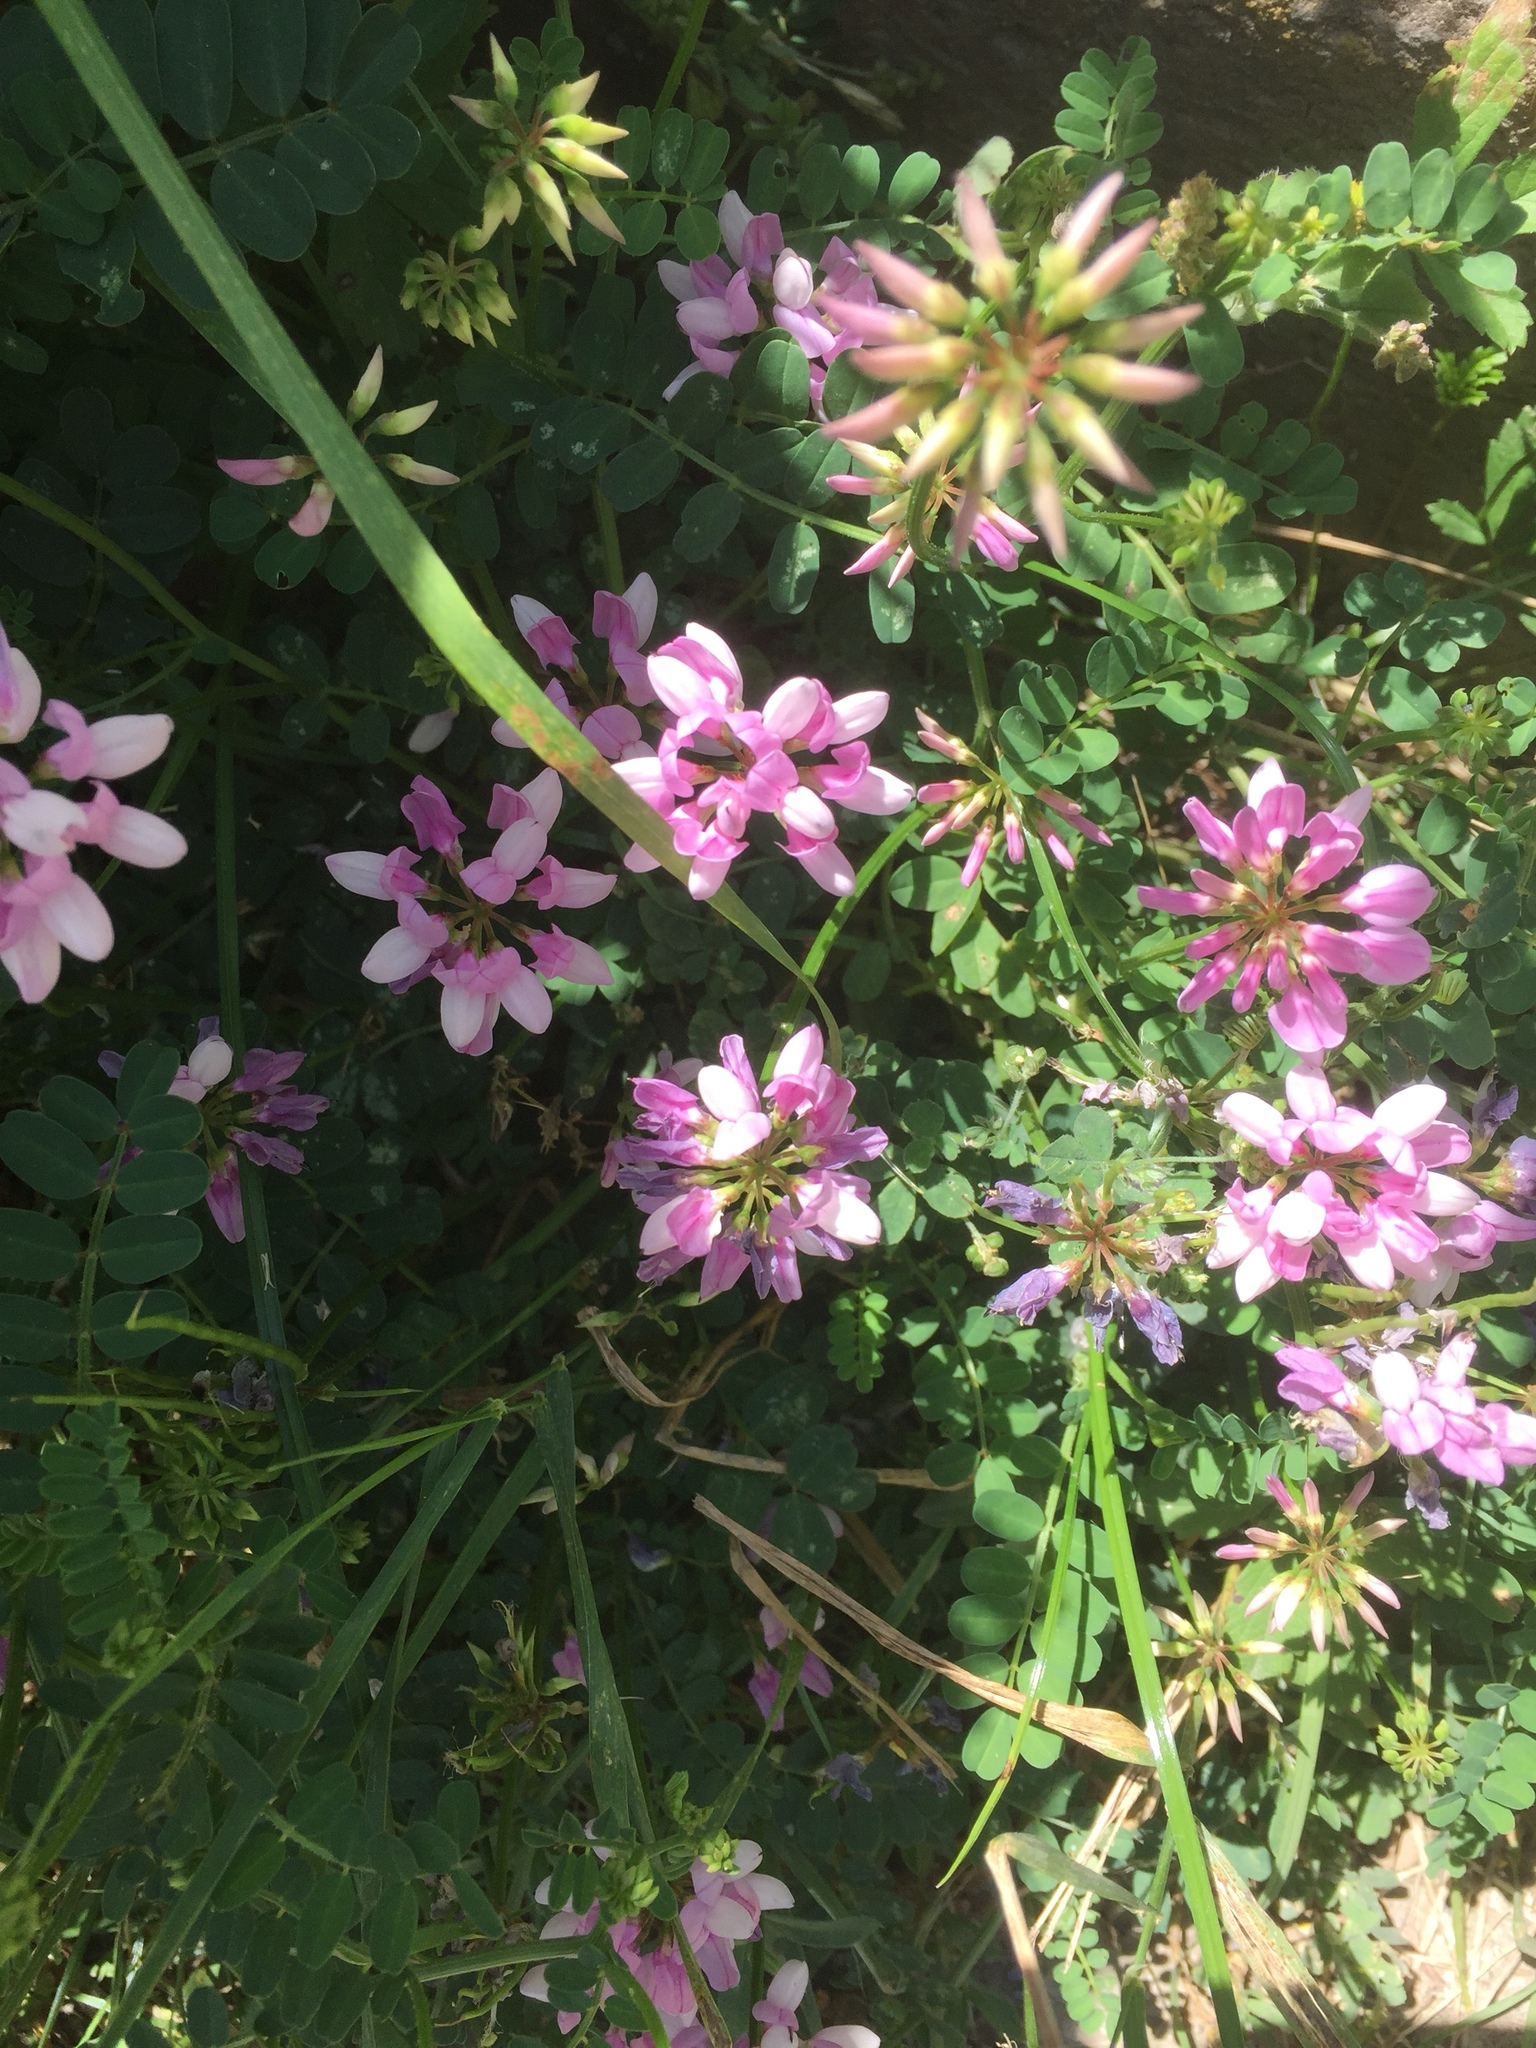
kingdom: Plantae
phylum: Tracheophyta
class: Magnoliopsida
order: Fabales
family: Fabaceae
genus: Coronilla
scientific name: Coronilla varia
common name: Crownvetch
